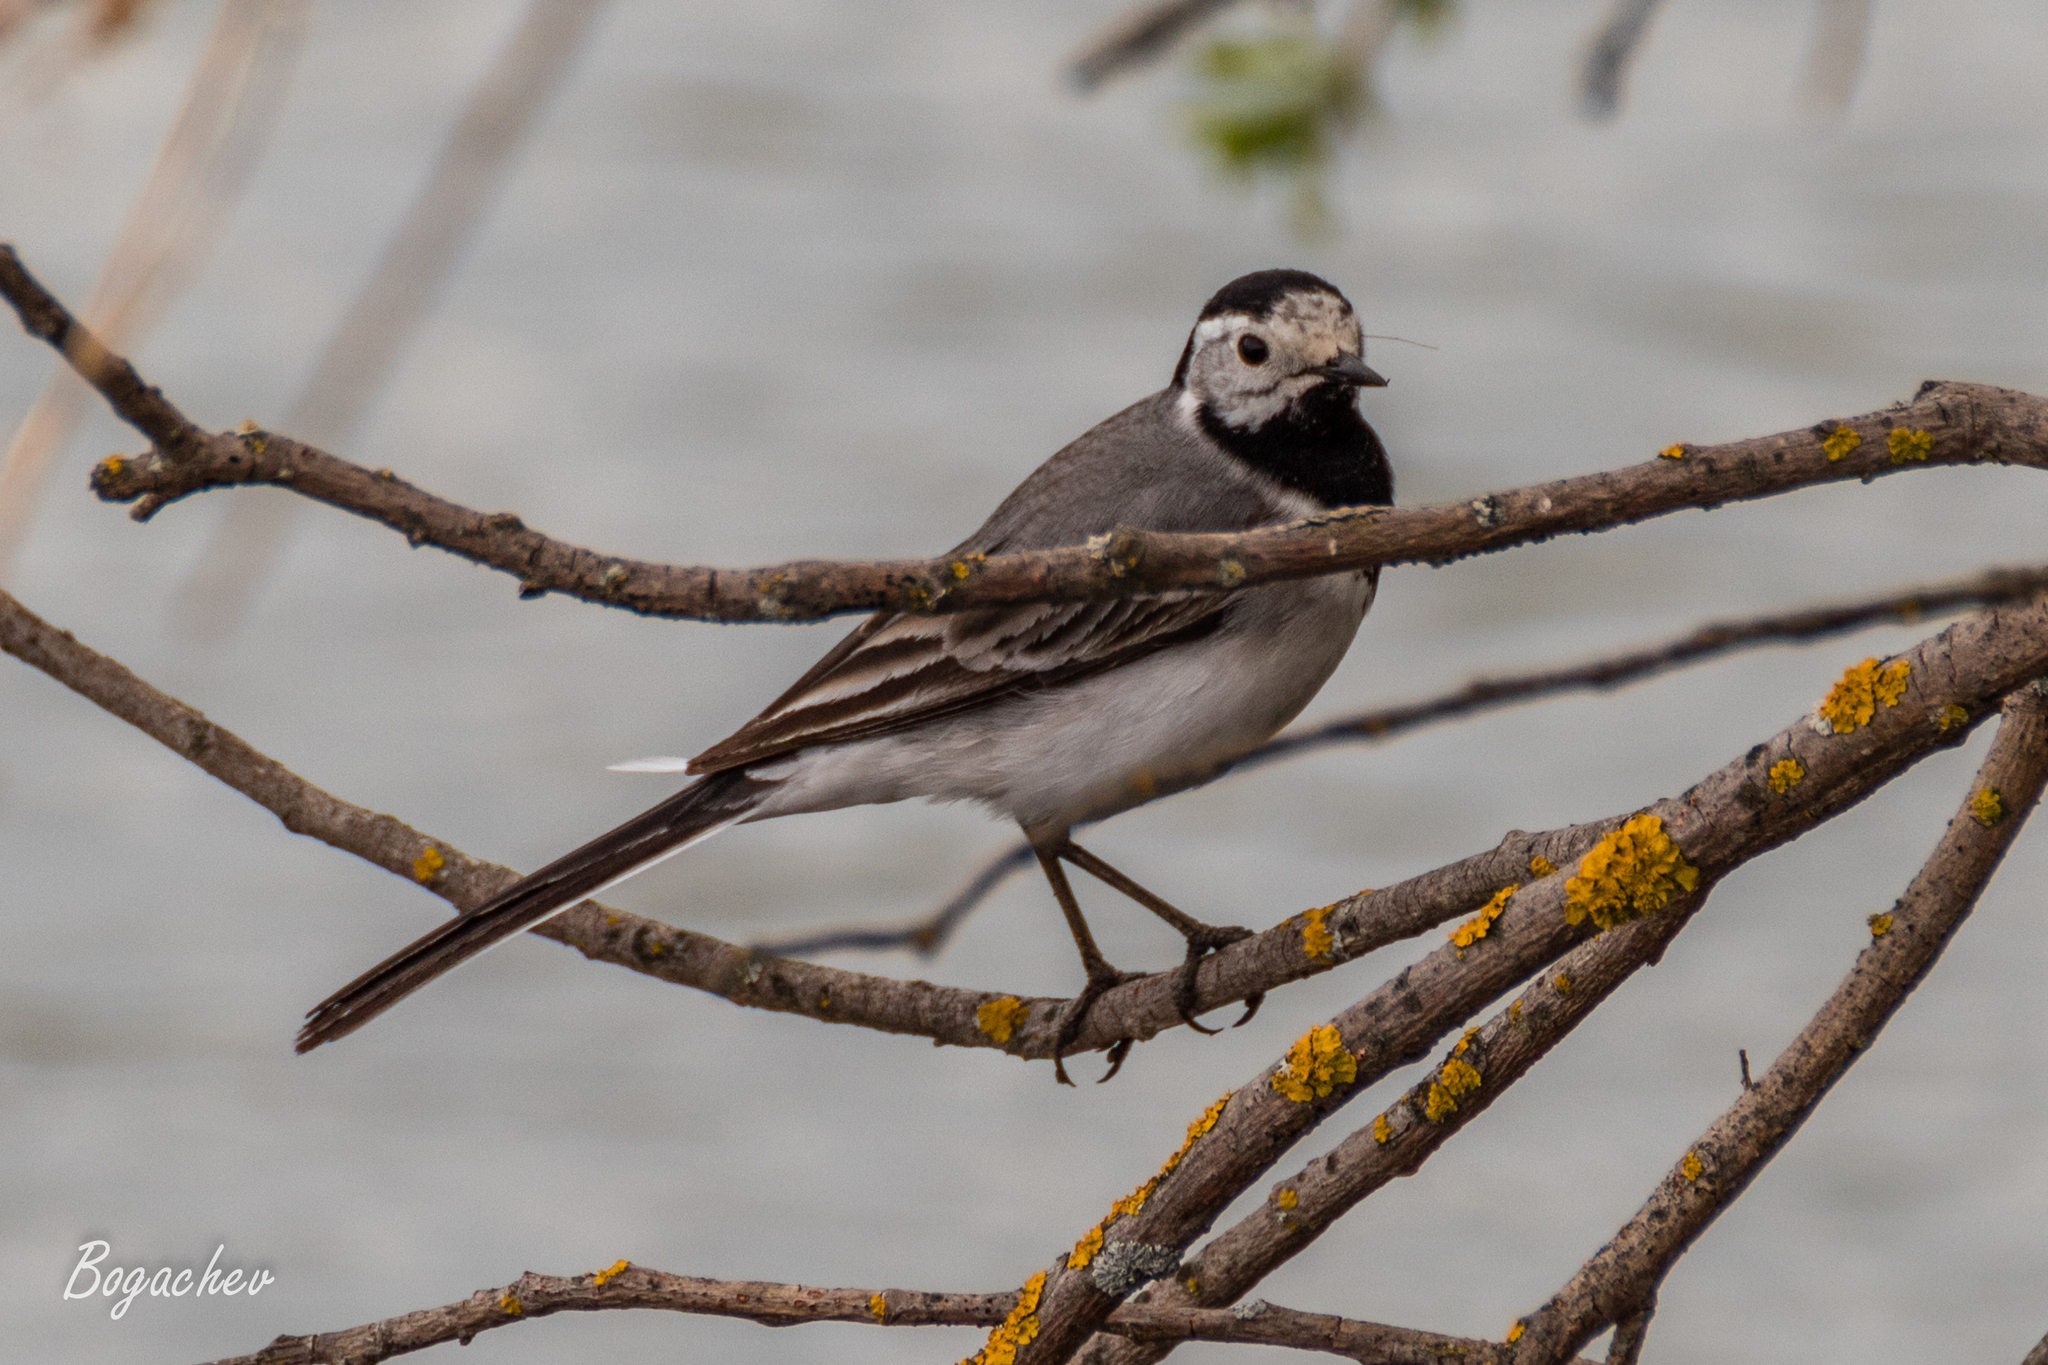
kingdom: Animalia
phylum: Chordata
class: Aves
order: Passeriformes
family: Motacillidae
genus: Motacilla
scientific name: Motacilla alba
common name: White wagtail
